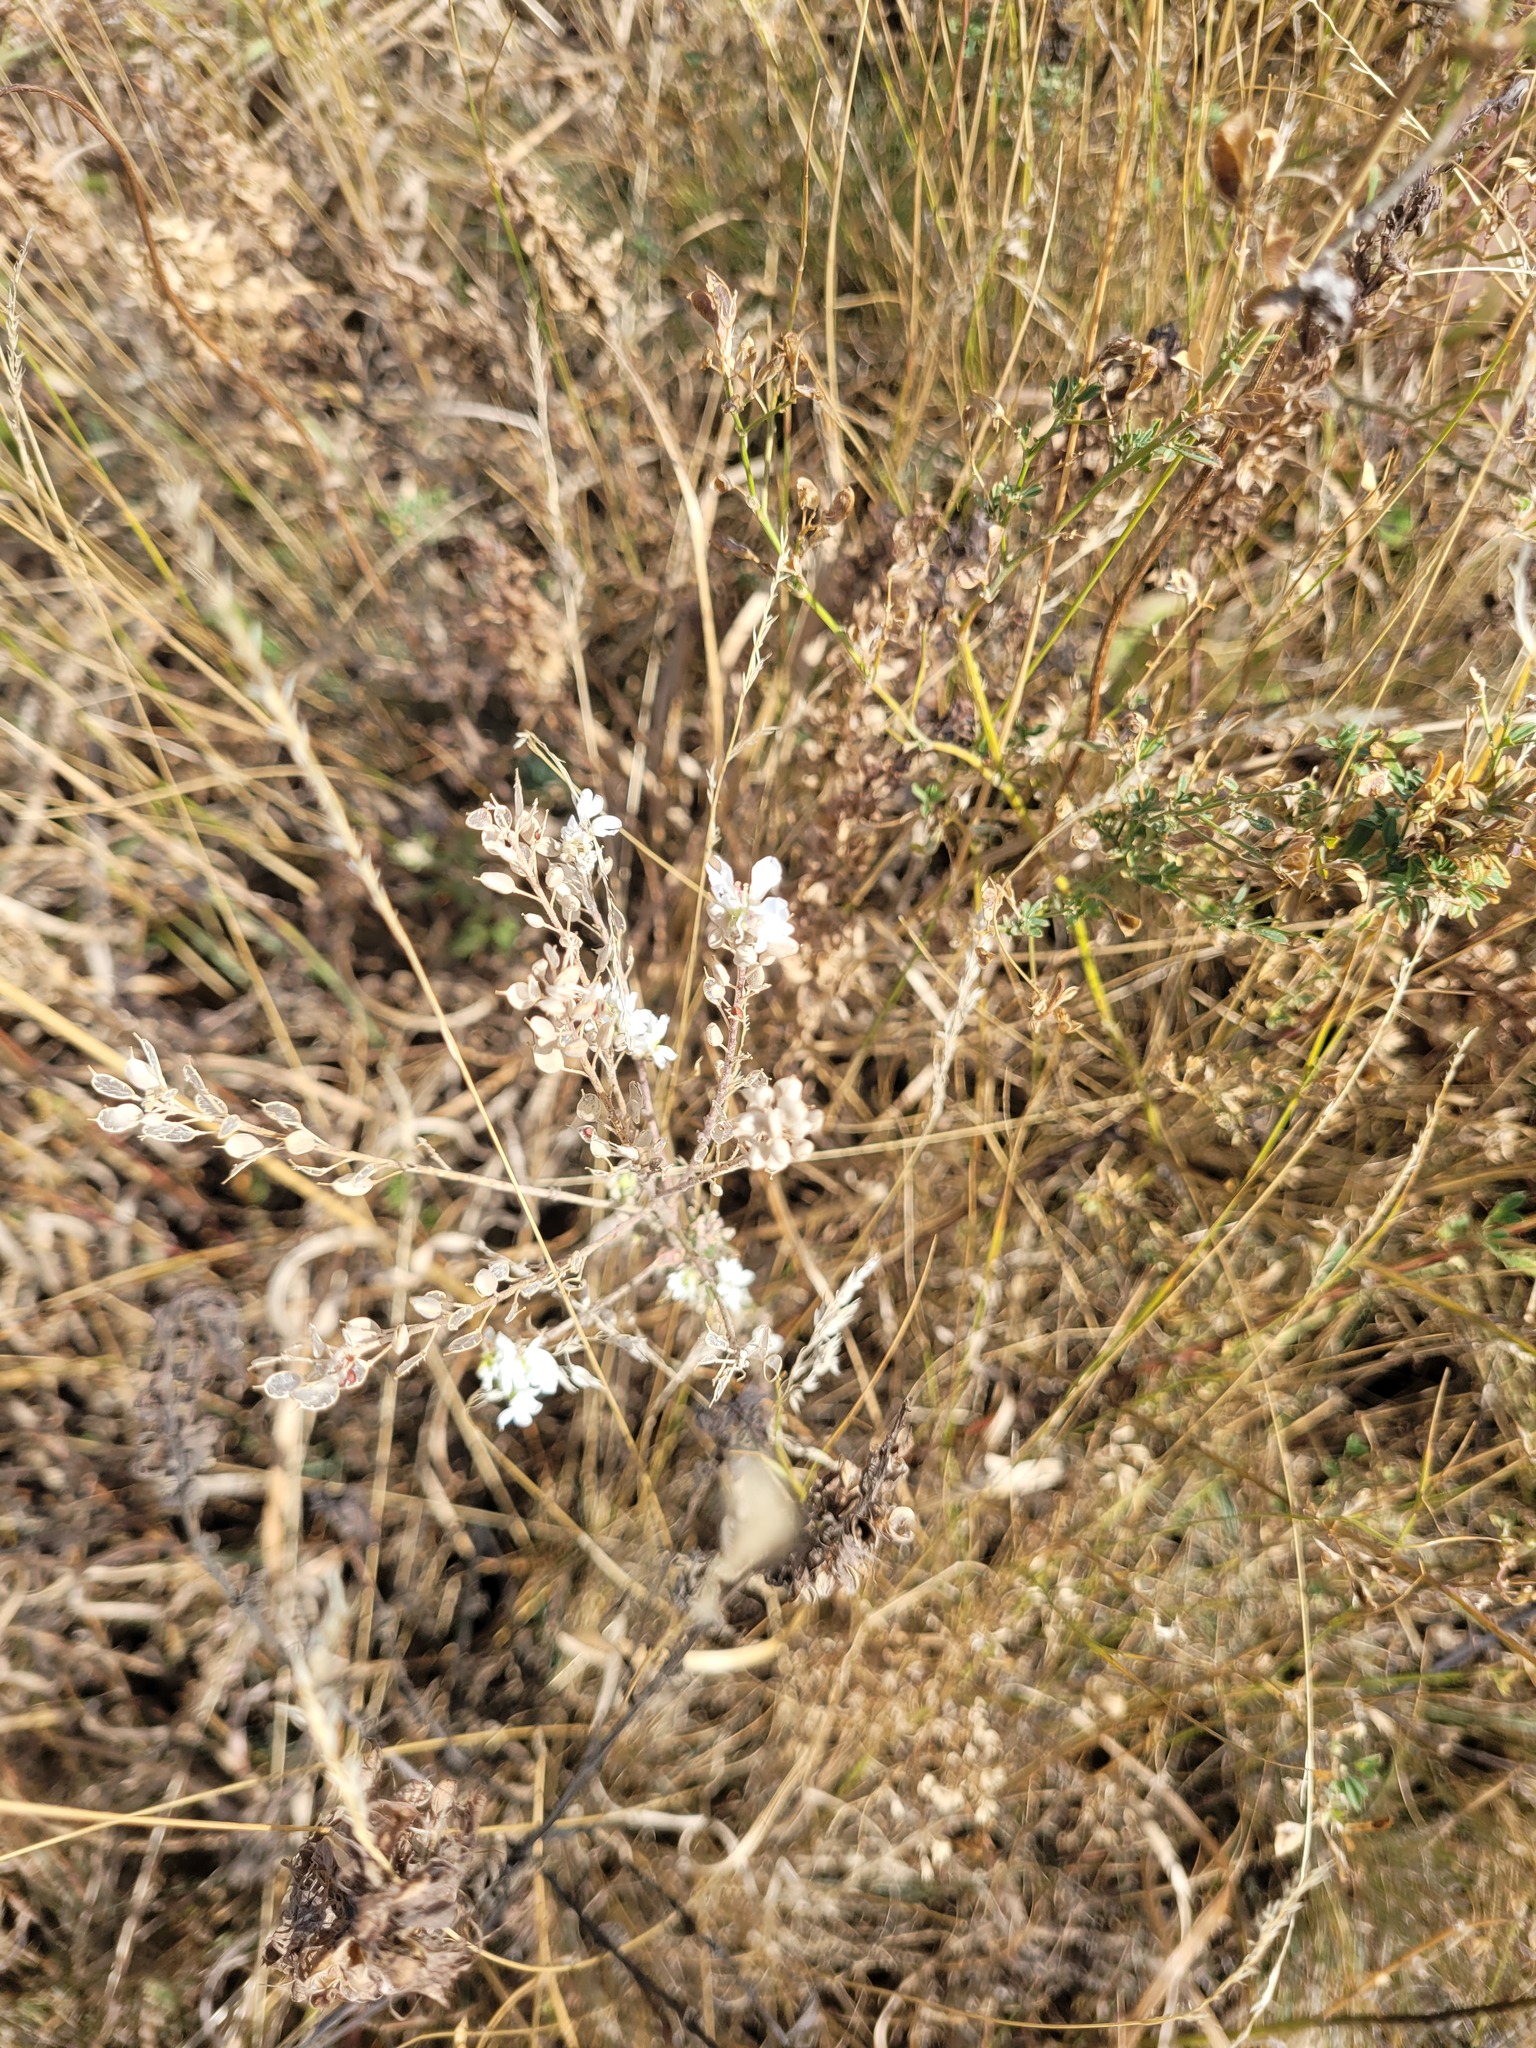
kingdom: Plantae
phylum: Tracheophyta
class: Magnoliopsida
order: Brassicales
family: Brassicaceae
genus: Berteroa
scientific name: Berteroa incana
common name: Hoary alison
